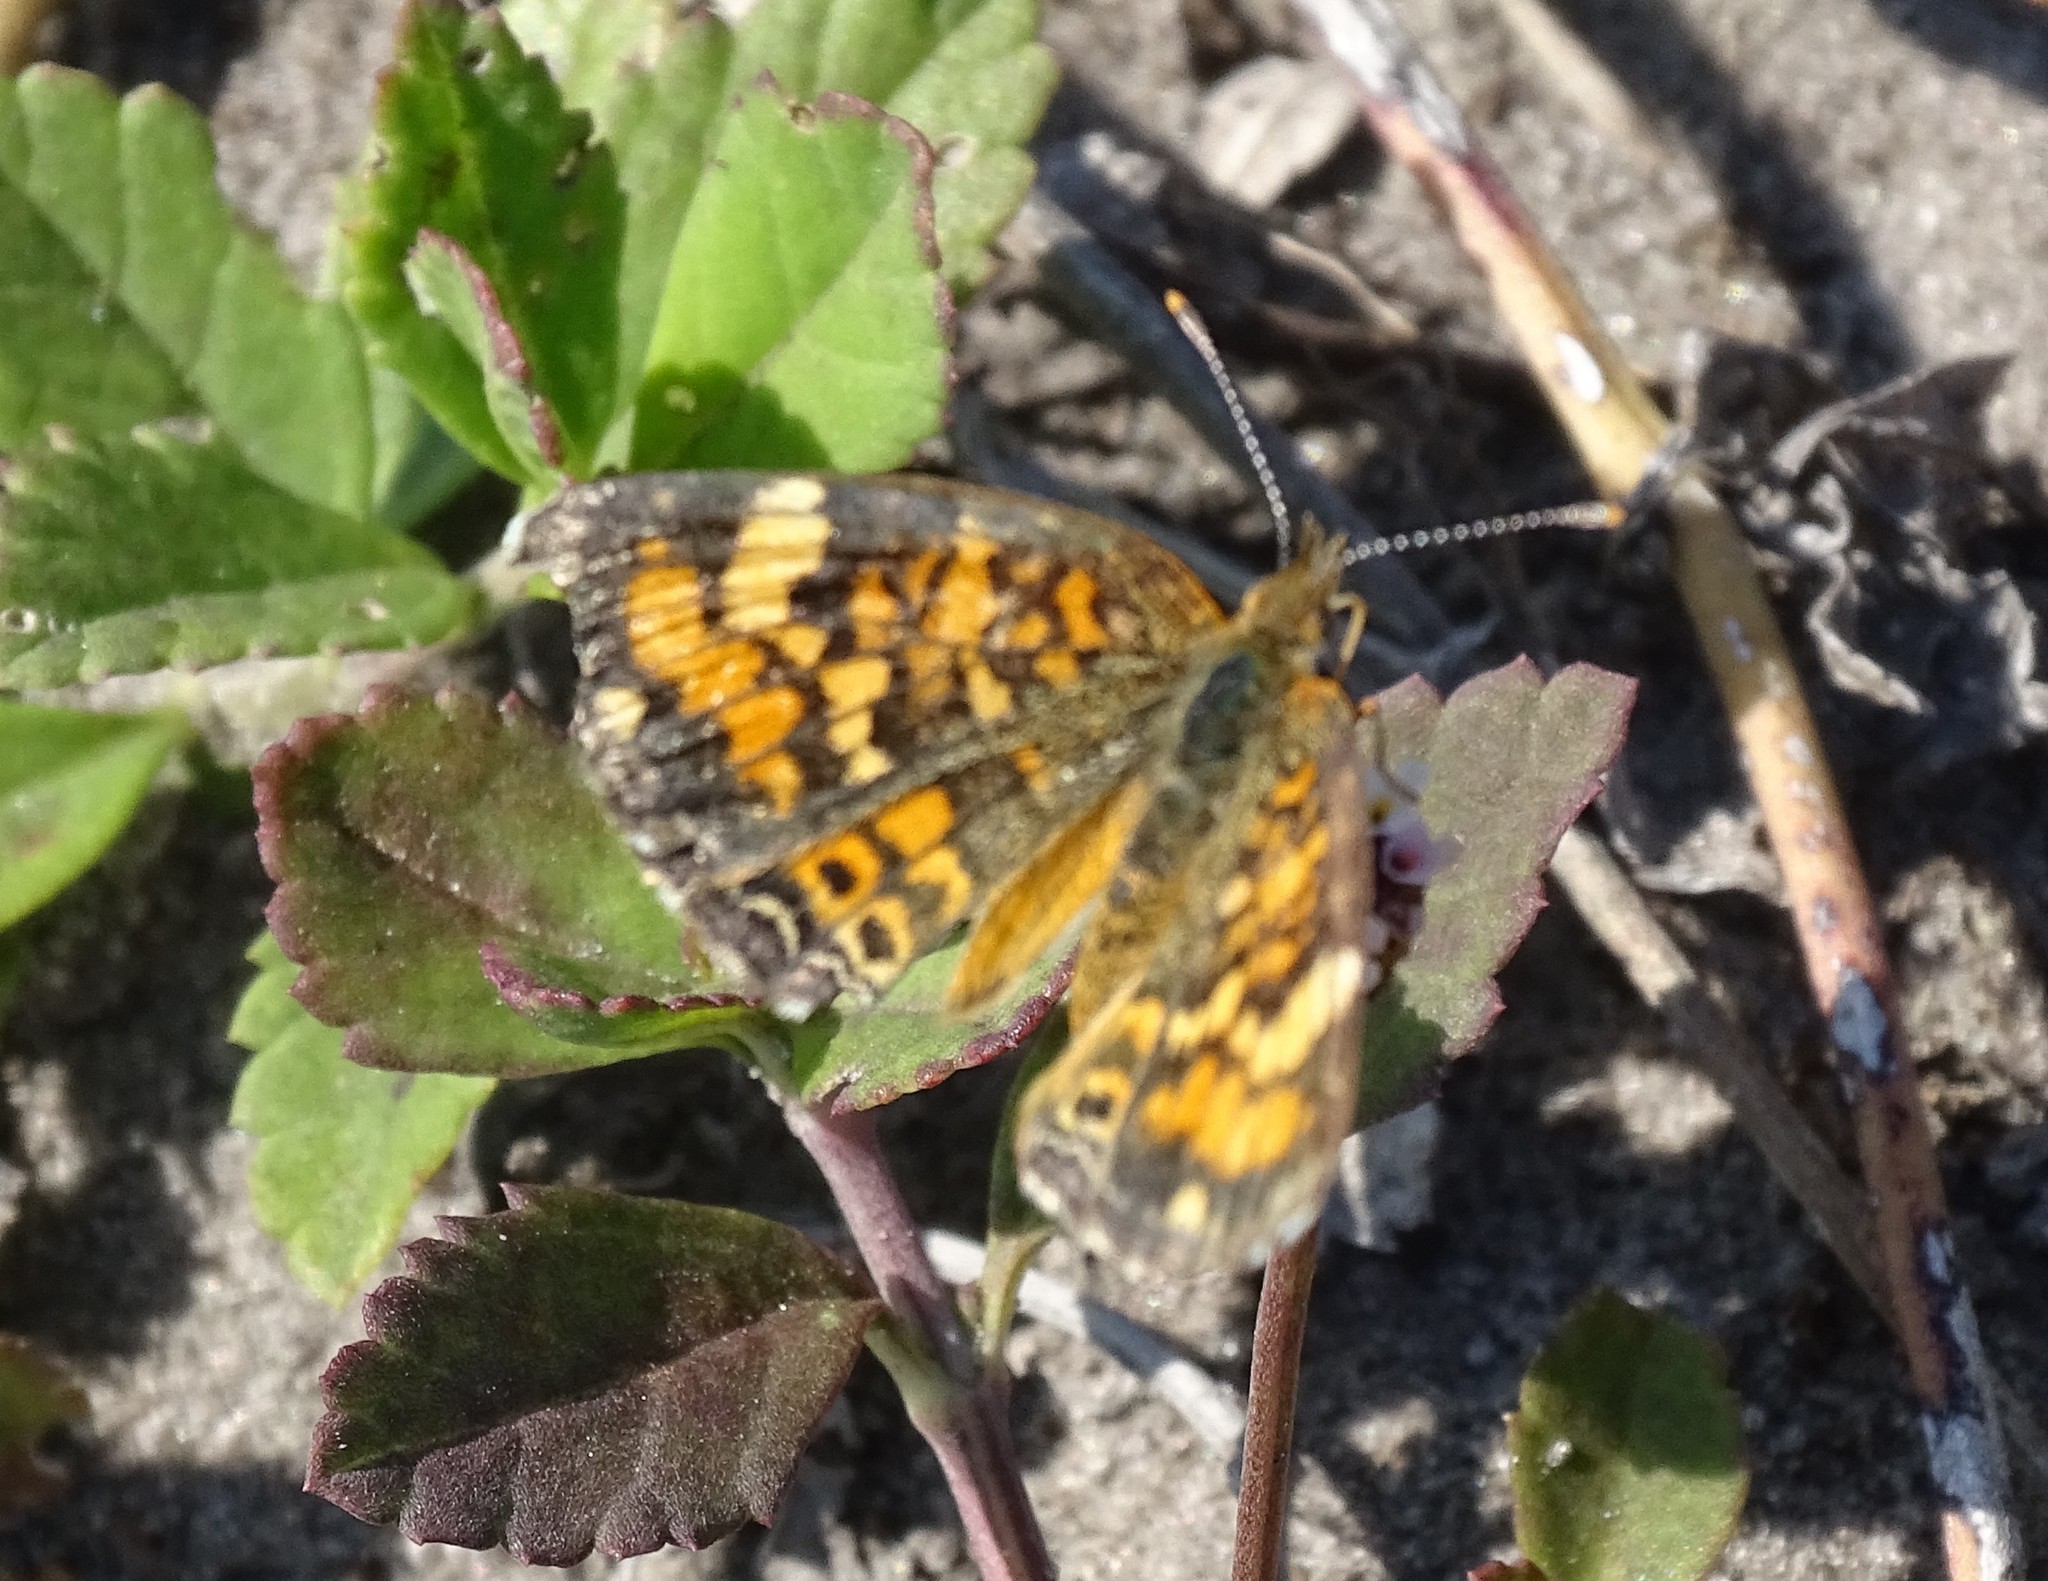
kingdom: Animalia
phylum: Arthropoda
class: Insecta
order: Lepidoptera
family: Nymphalidae
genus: Phyciodes
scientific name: Phyciodes phaon
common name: Phaon crescent
